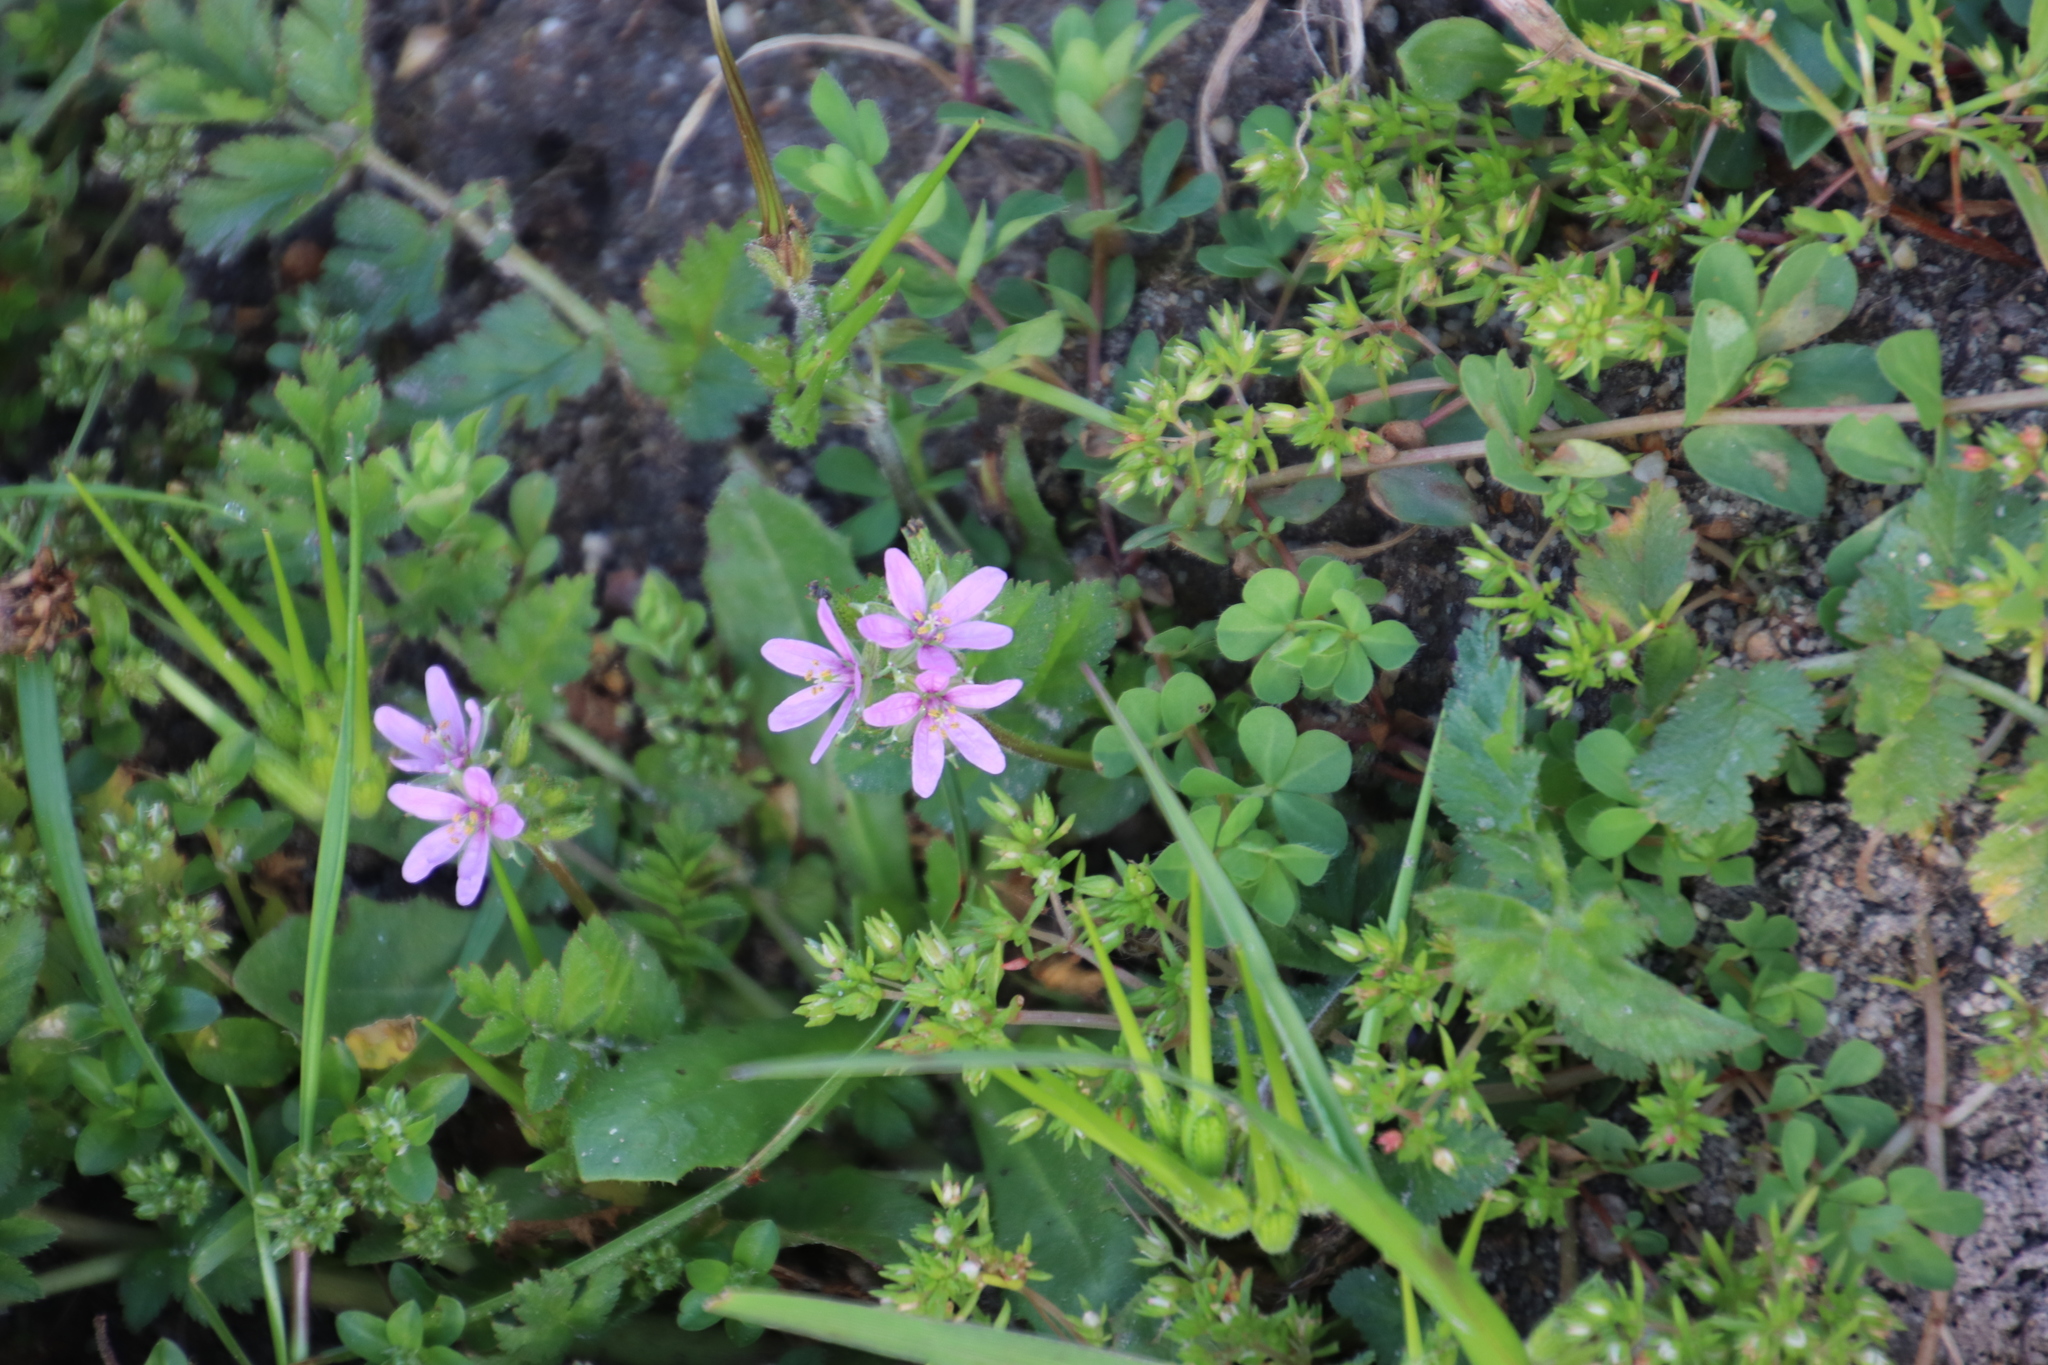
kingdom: Plantae
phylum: Tracheophyta
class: Magnoliopsida
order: Geraniales
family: Geraniaceae
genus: Erodium
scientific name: Erodium moschatum
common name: Musk stork's-bill
